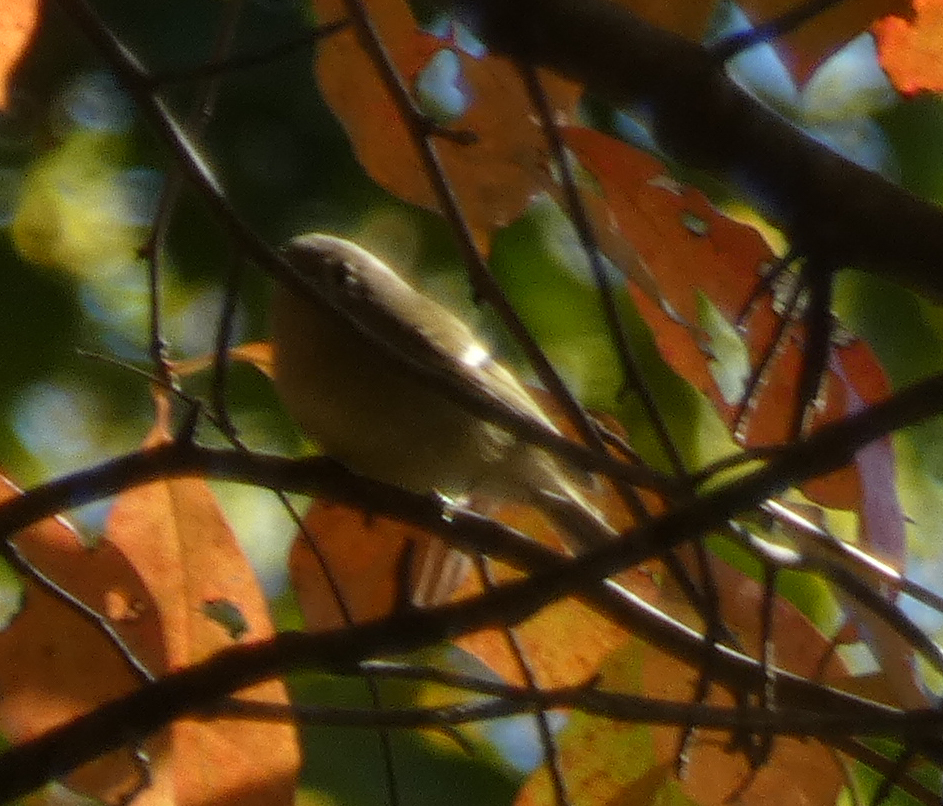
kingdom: Animalia
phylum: Chordata
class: Aves
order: Passeriformes
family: Regulidae
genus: Regulus
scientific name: Regulus calendula
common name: Ruby-crowned kinglet
